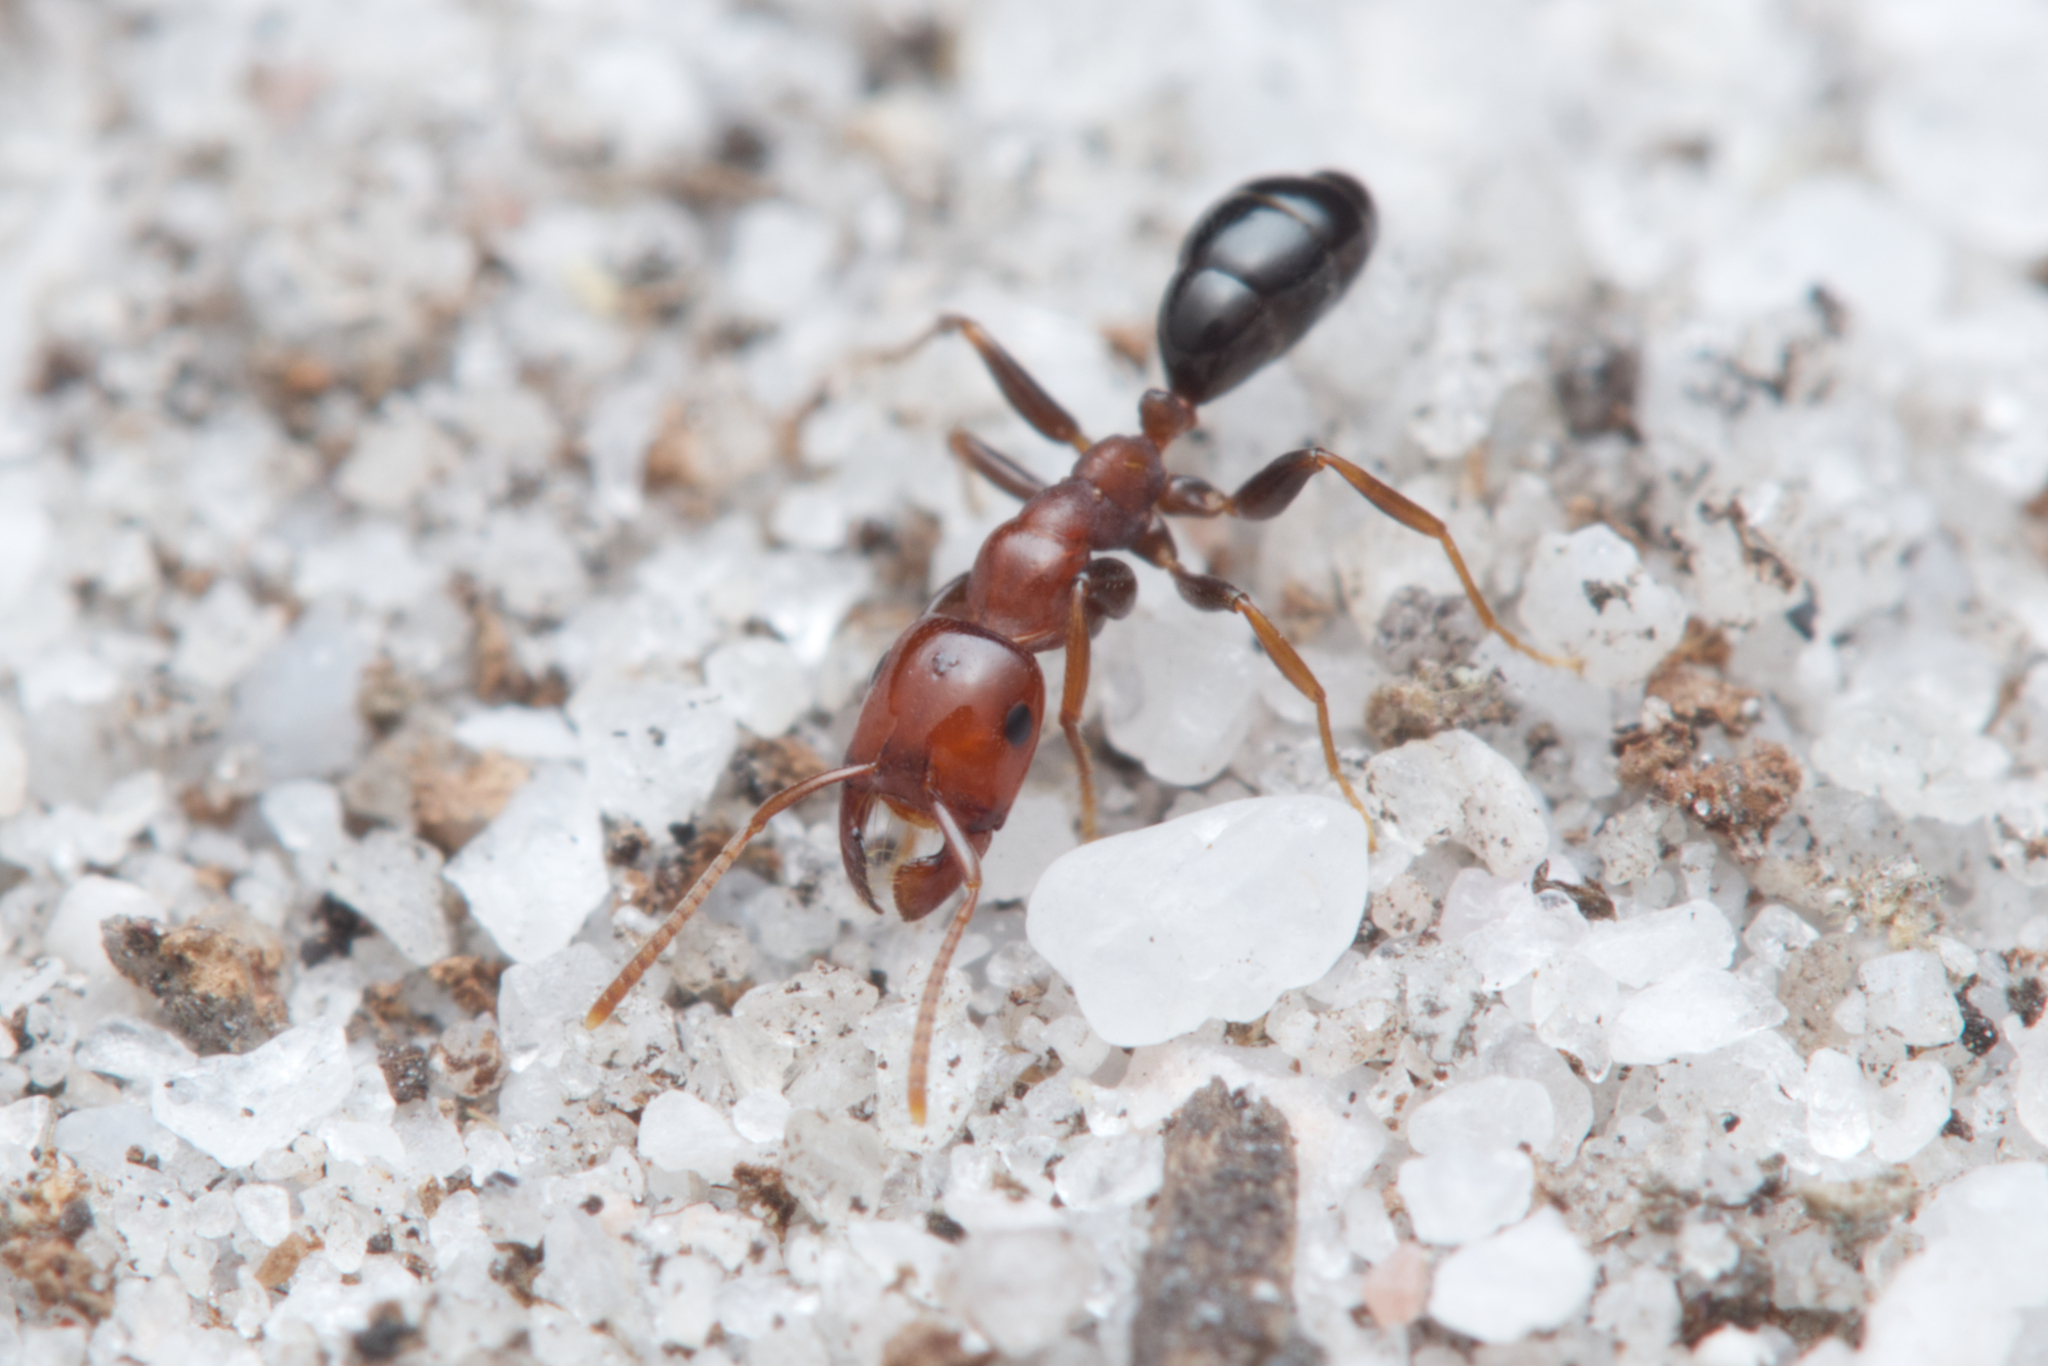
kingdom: Animalia
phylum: Arthropoda
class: Insecta
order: Hymenoptera
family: Formicidae
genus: Melophorus
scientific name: Melophorus pelecygnathus
